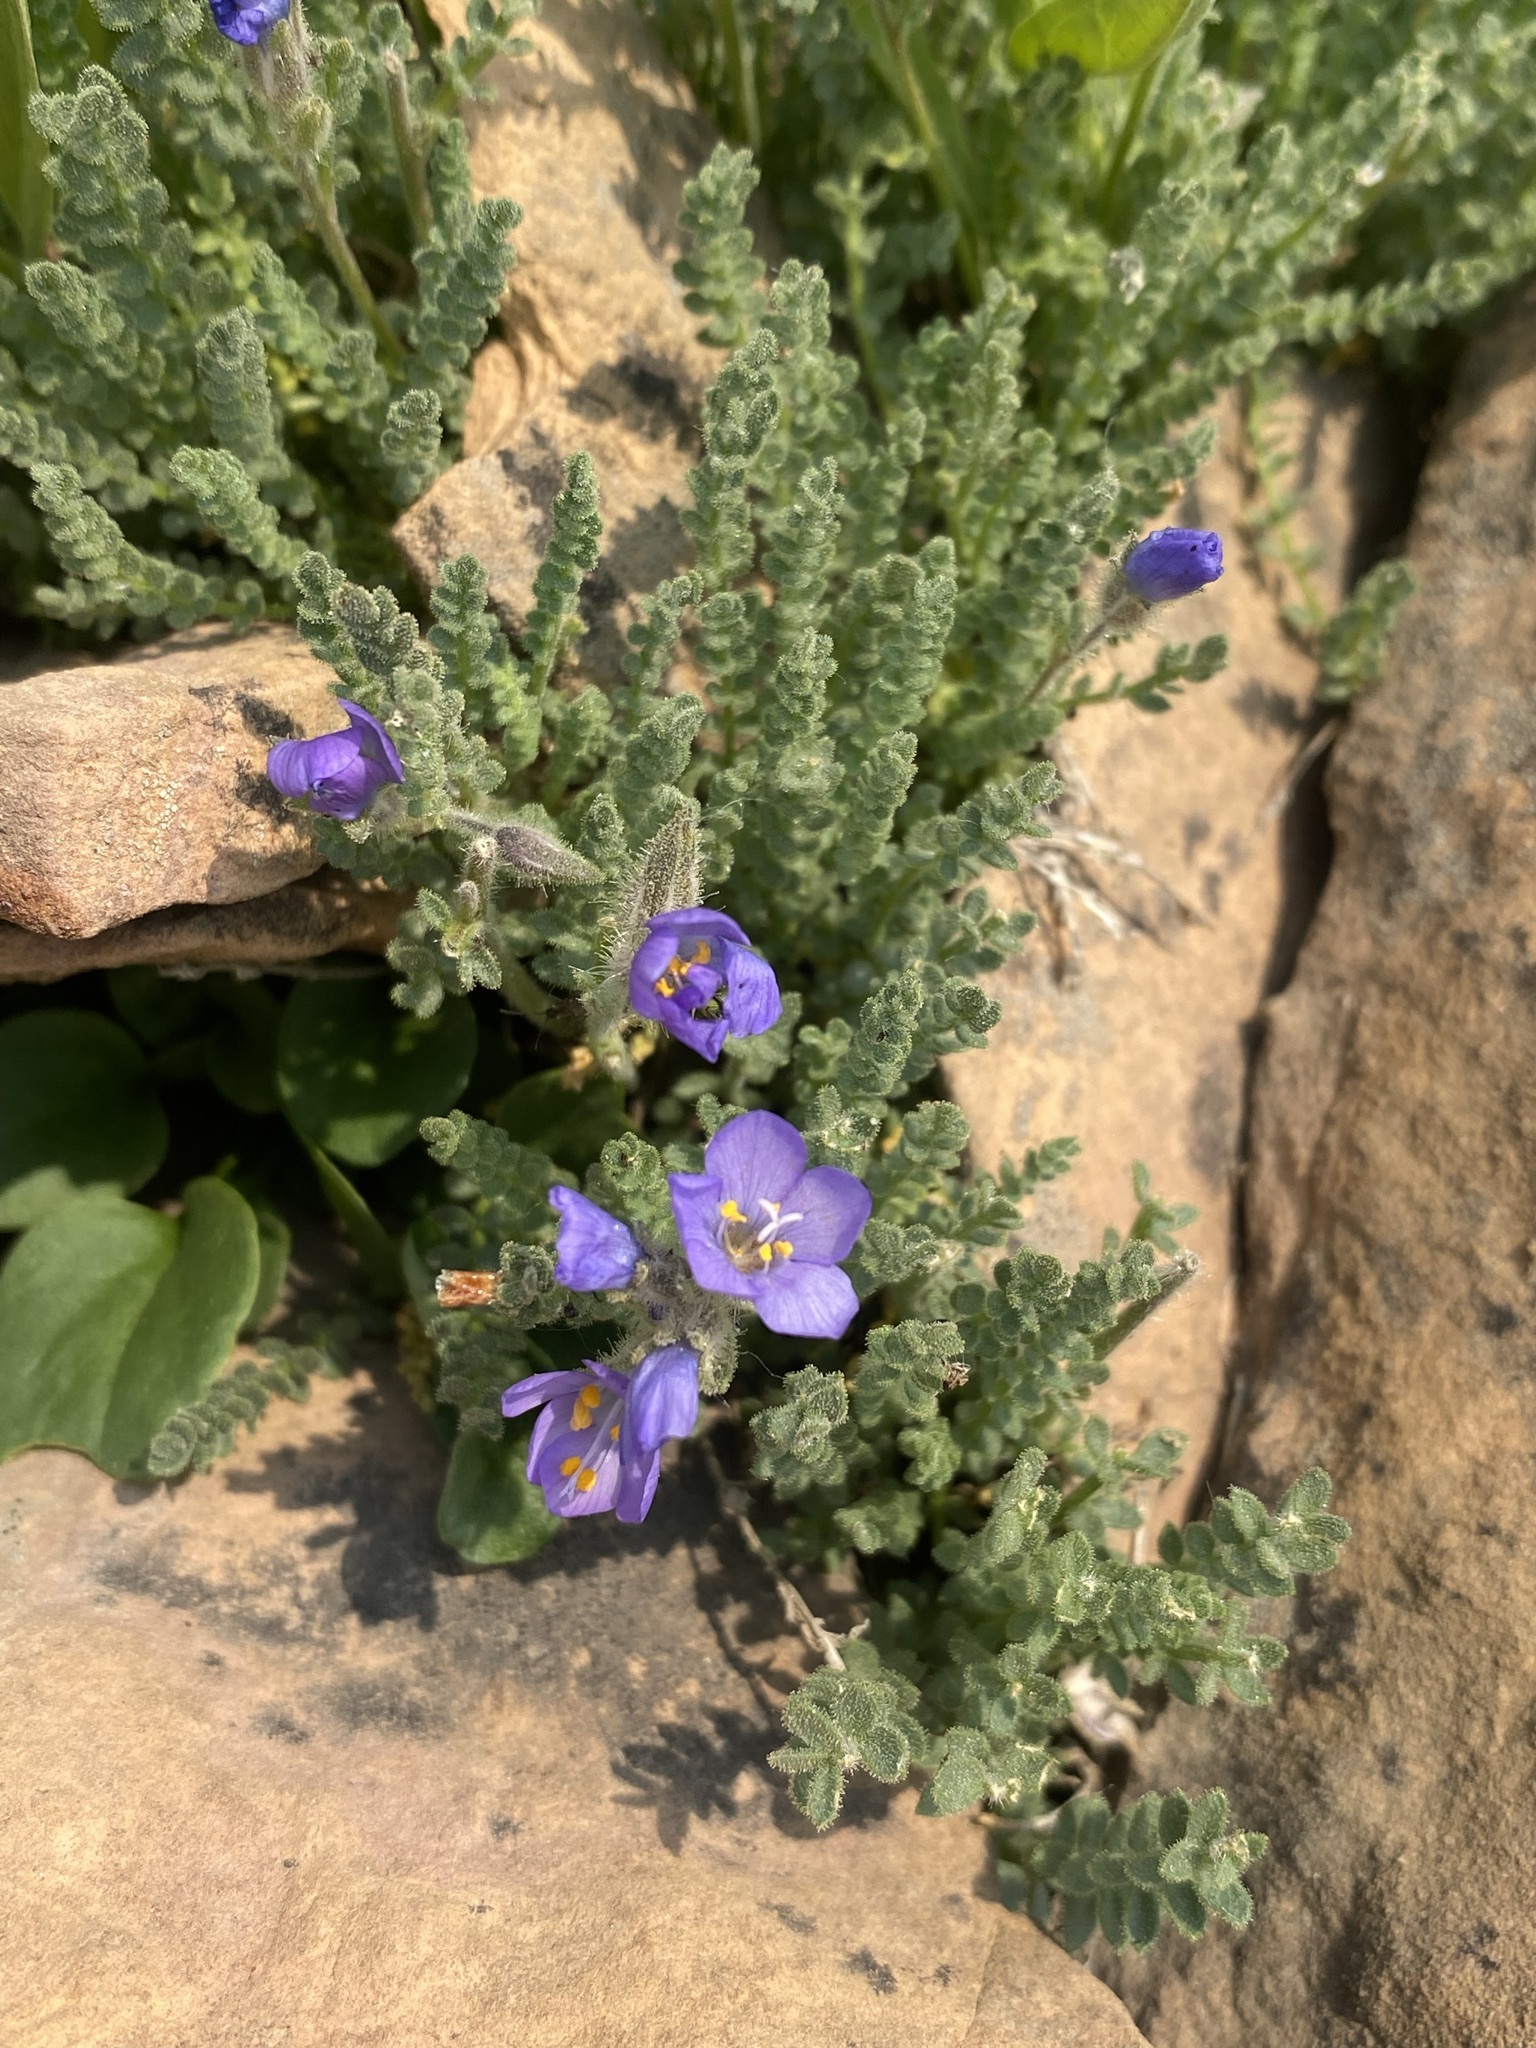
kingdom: Plantae
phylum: Tracheophyta
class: Magnoliopsida
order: Ericales
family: Polemoniaceae
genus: Polemonium
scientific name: Polemonium viscosum
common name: Skunk jacob's-ladder
